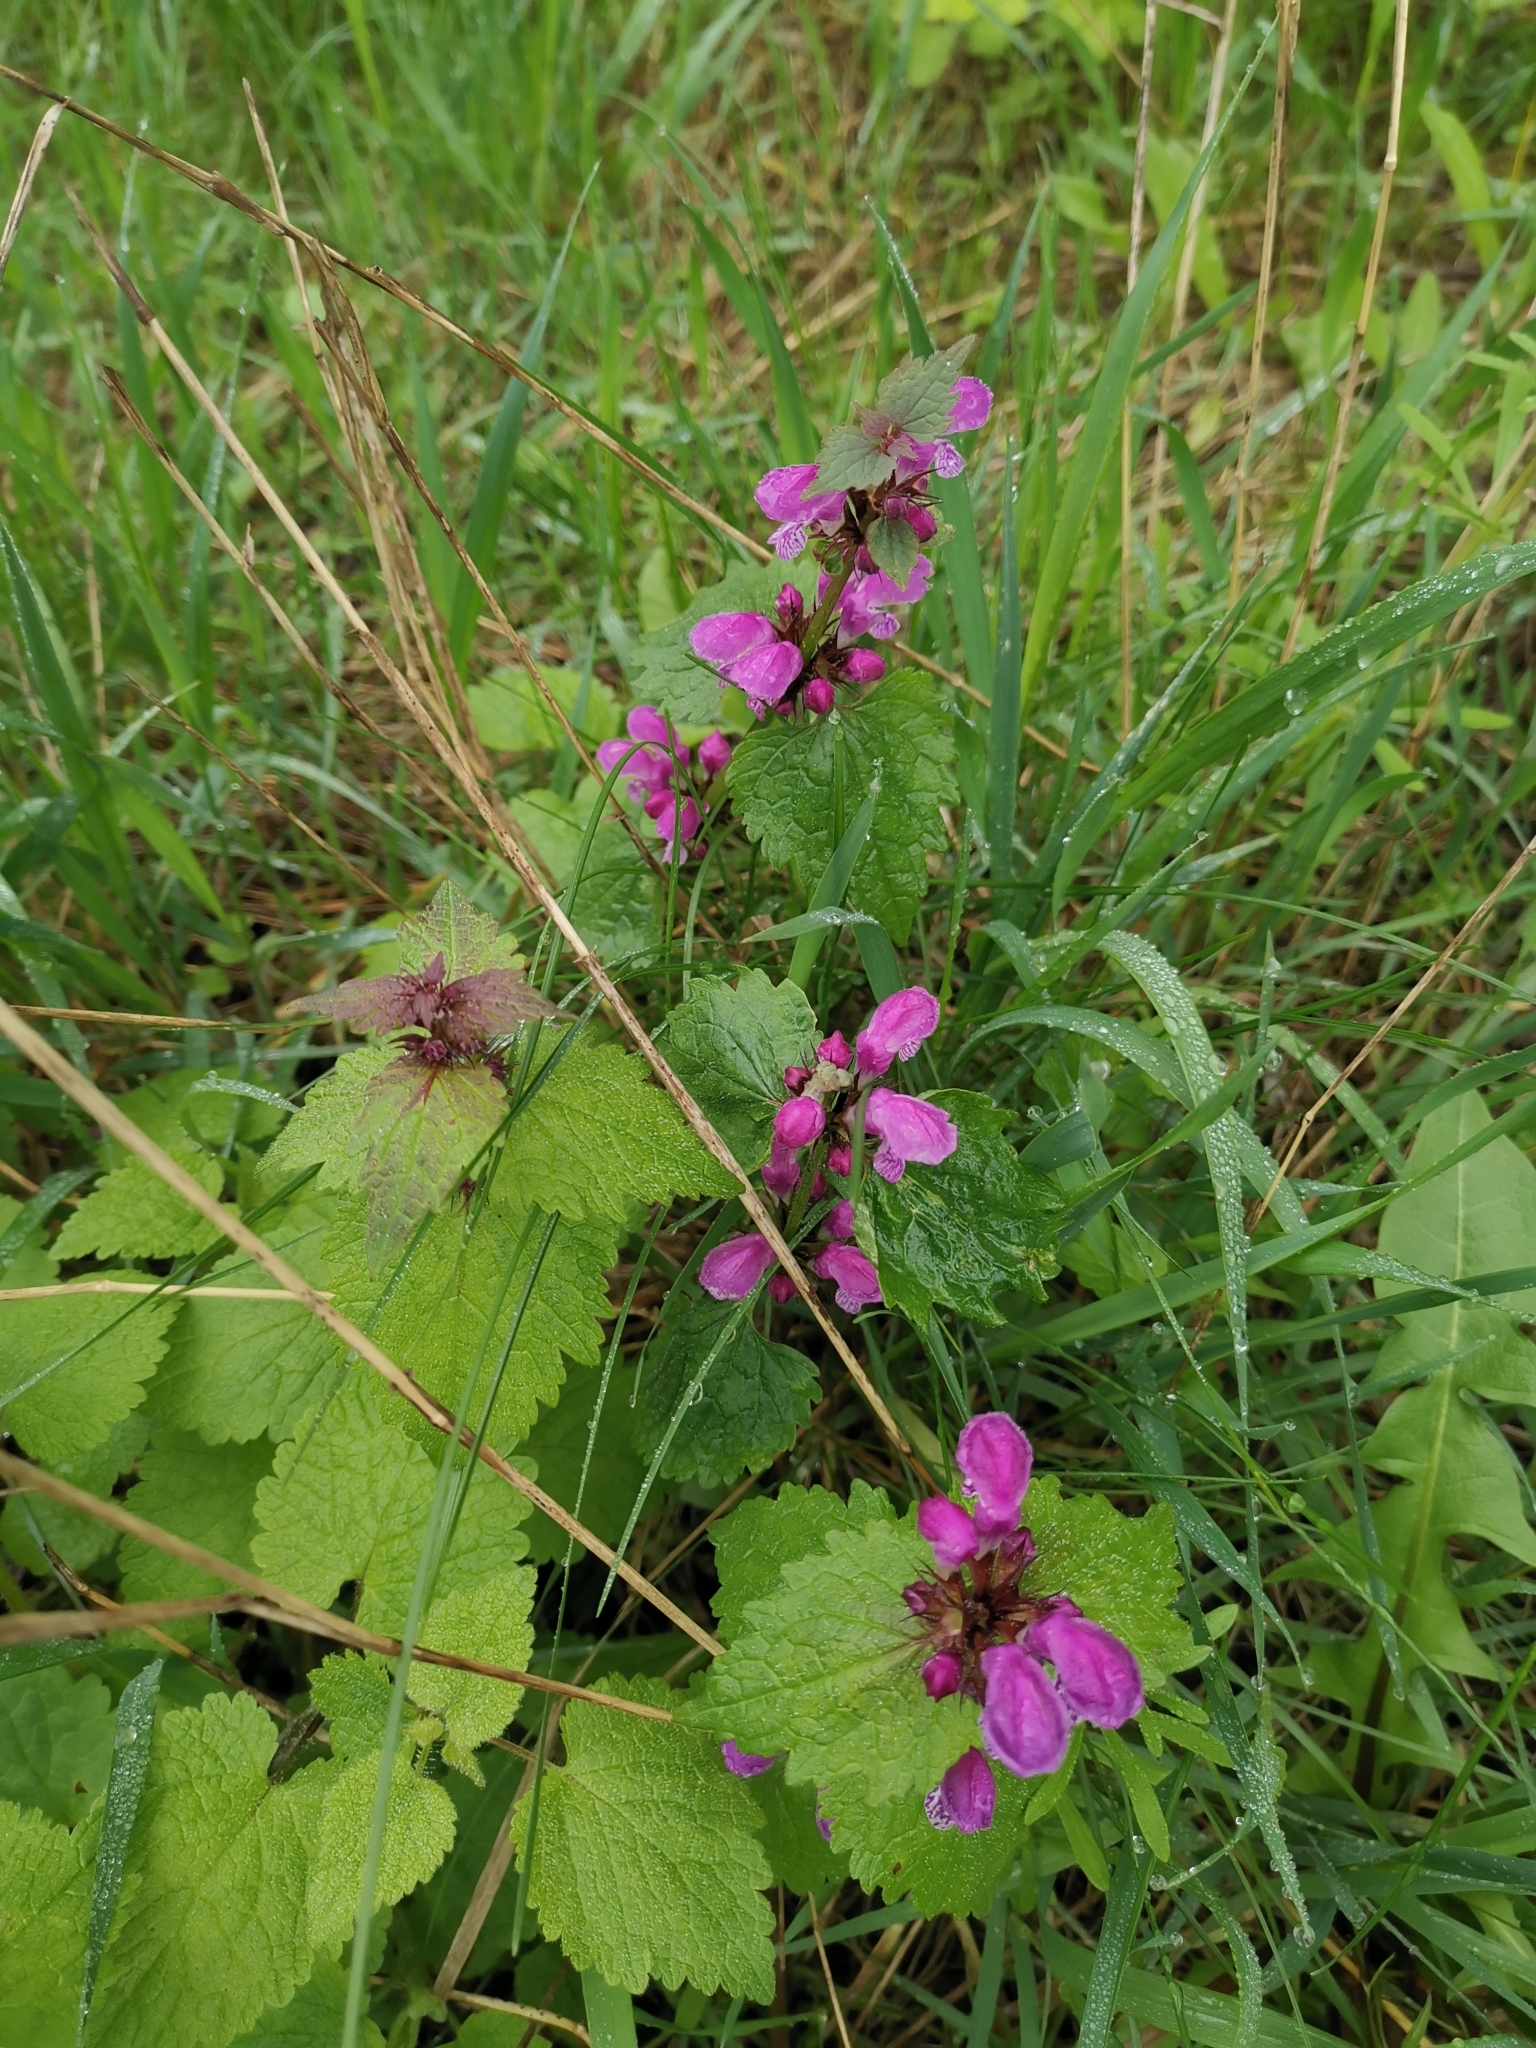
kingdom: Plantae
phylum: Tracheophyta
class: Magnoliopsida
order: Lamiales
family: Lamiaceae
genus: Lamium
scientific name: Lamium maculatum
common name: Spotted dead-nettle
